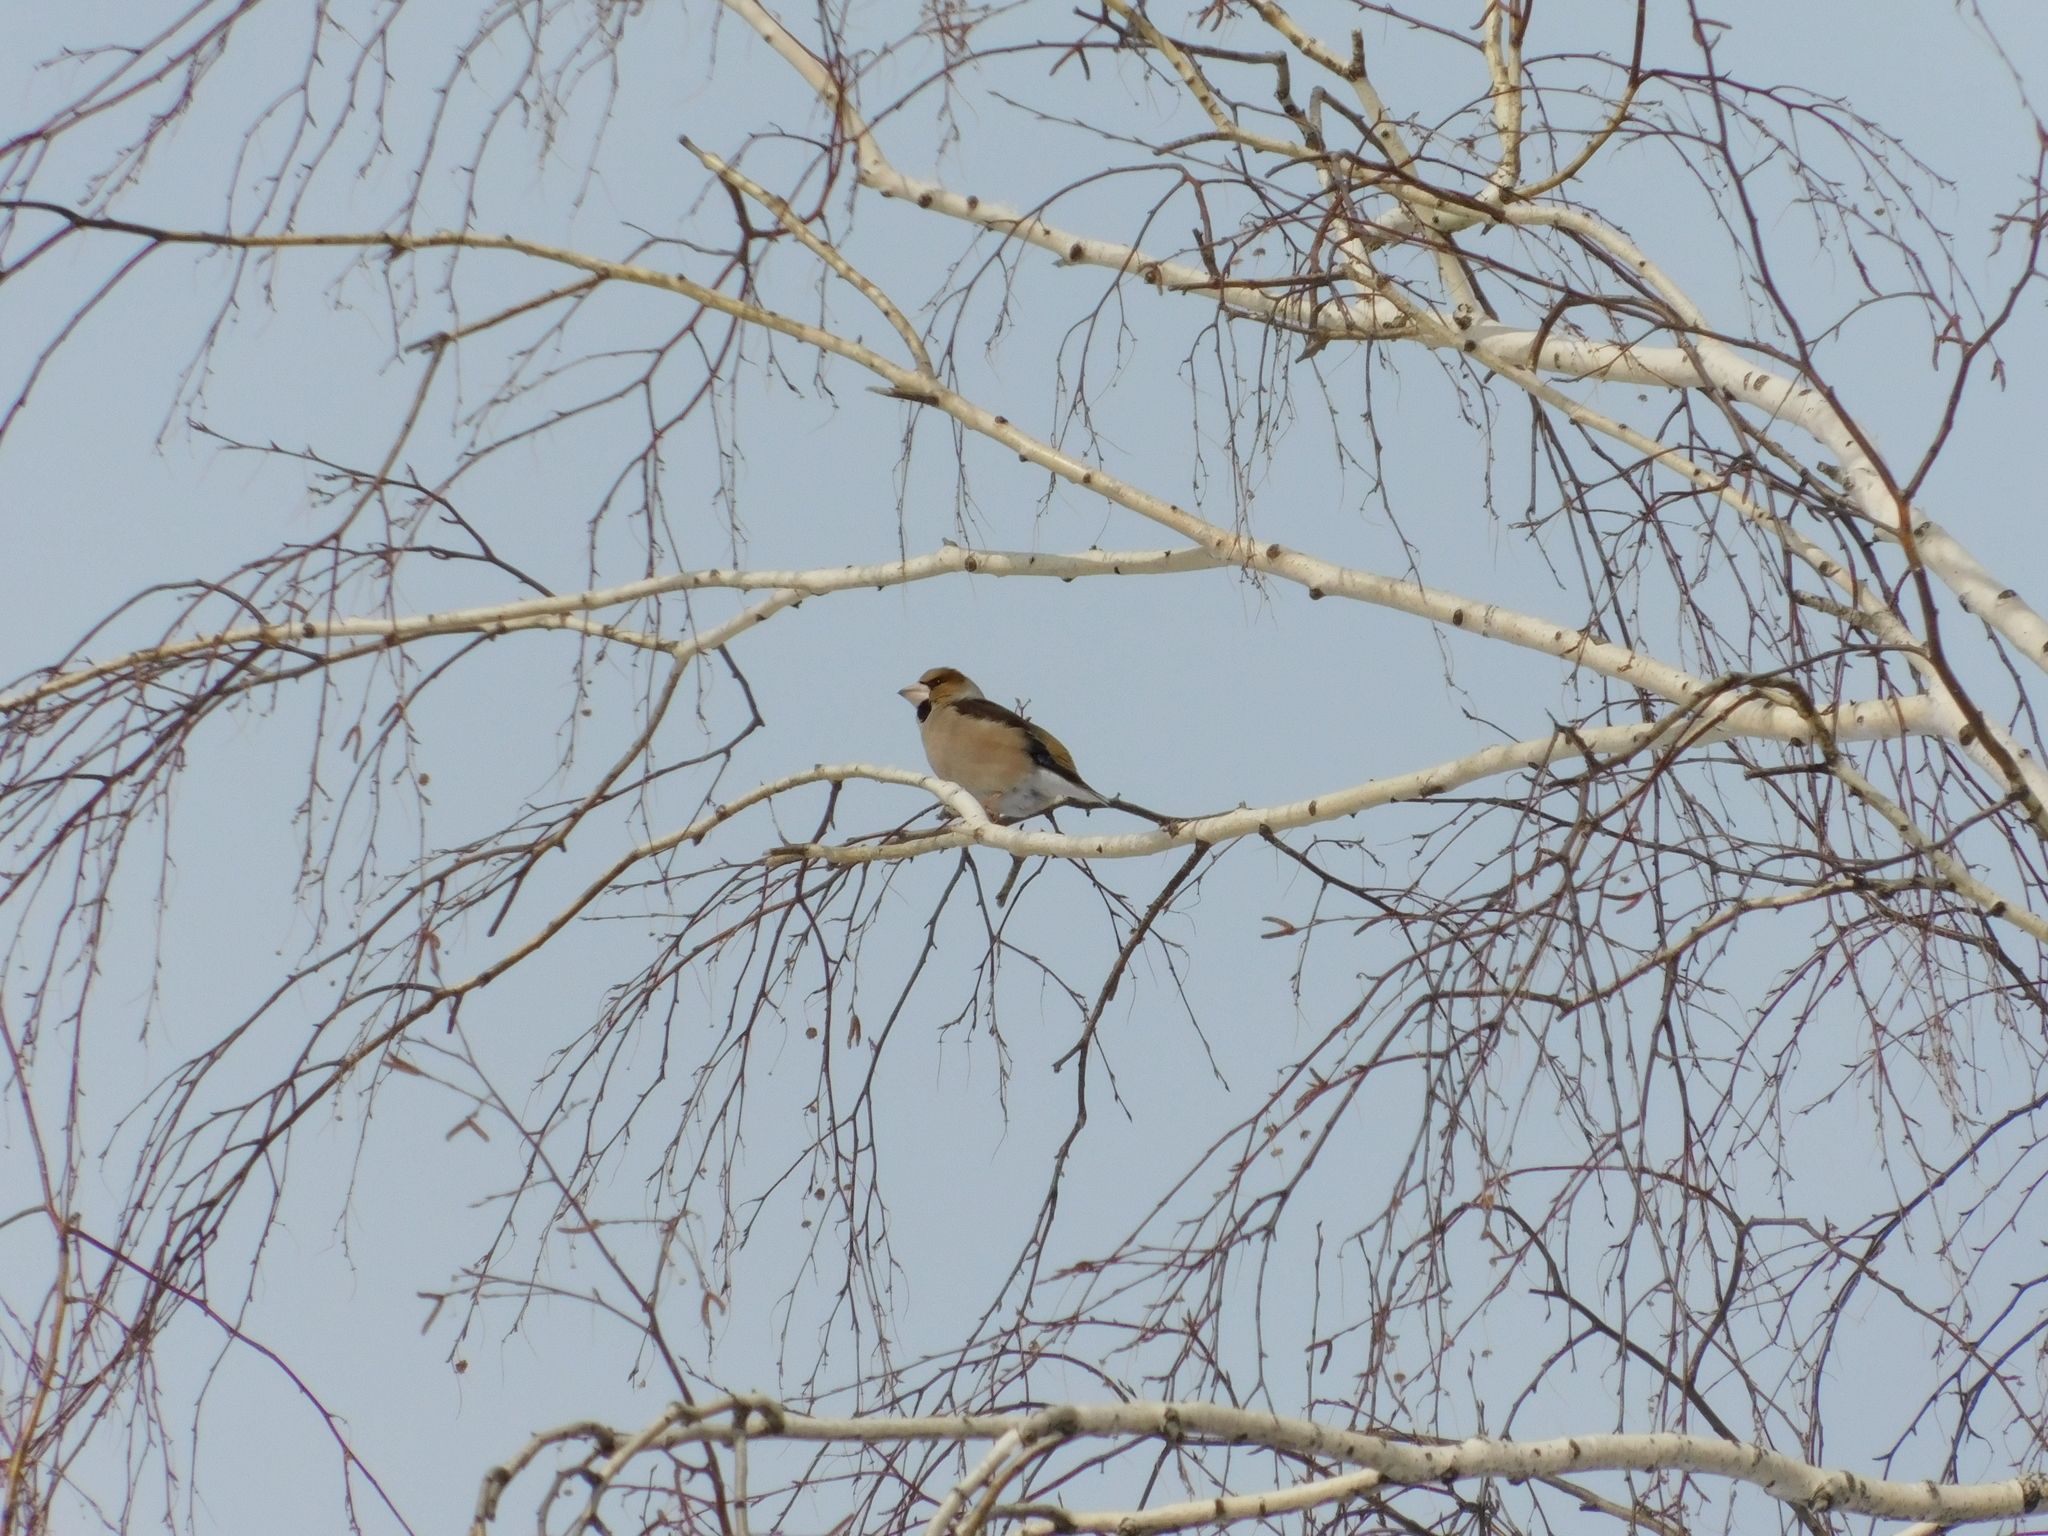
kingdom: Animalia
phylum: Chordata
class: Aves
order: Passeriformes
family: Fringillidae
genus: Coccothraustes
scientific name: Coccothraustes coccothraustes
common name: Hawfinch
